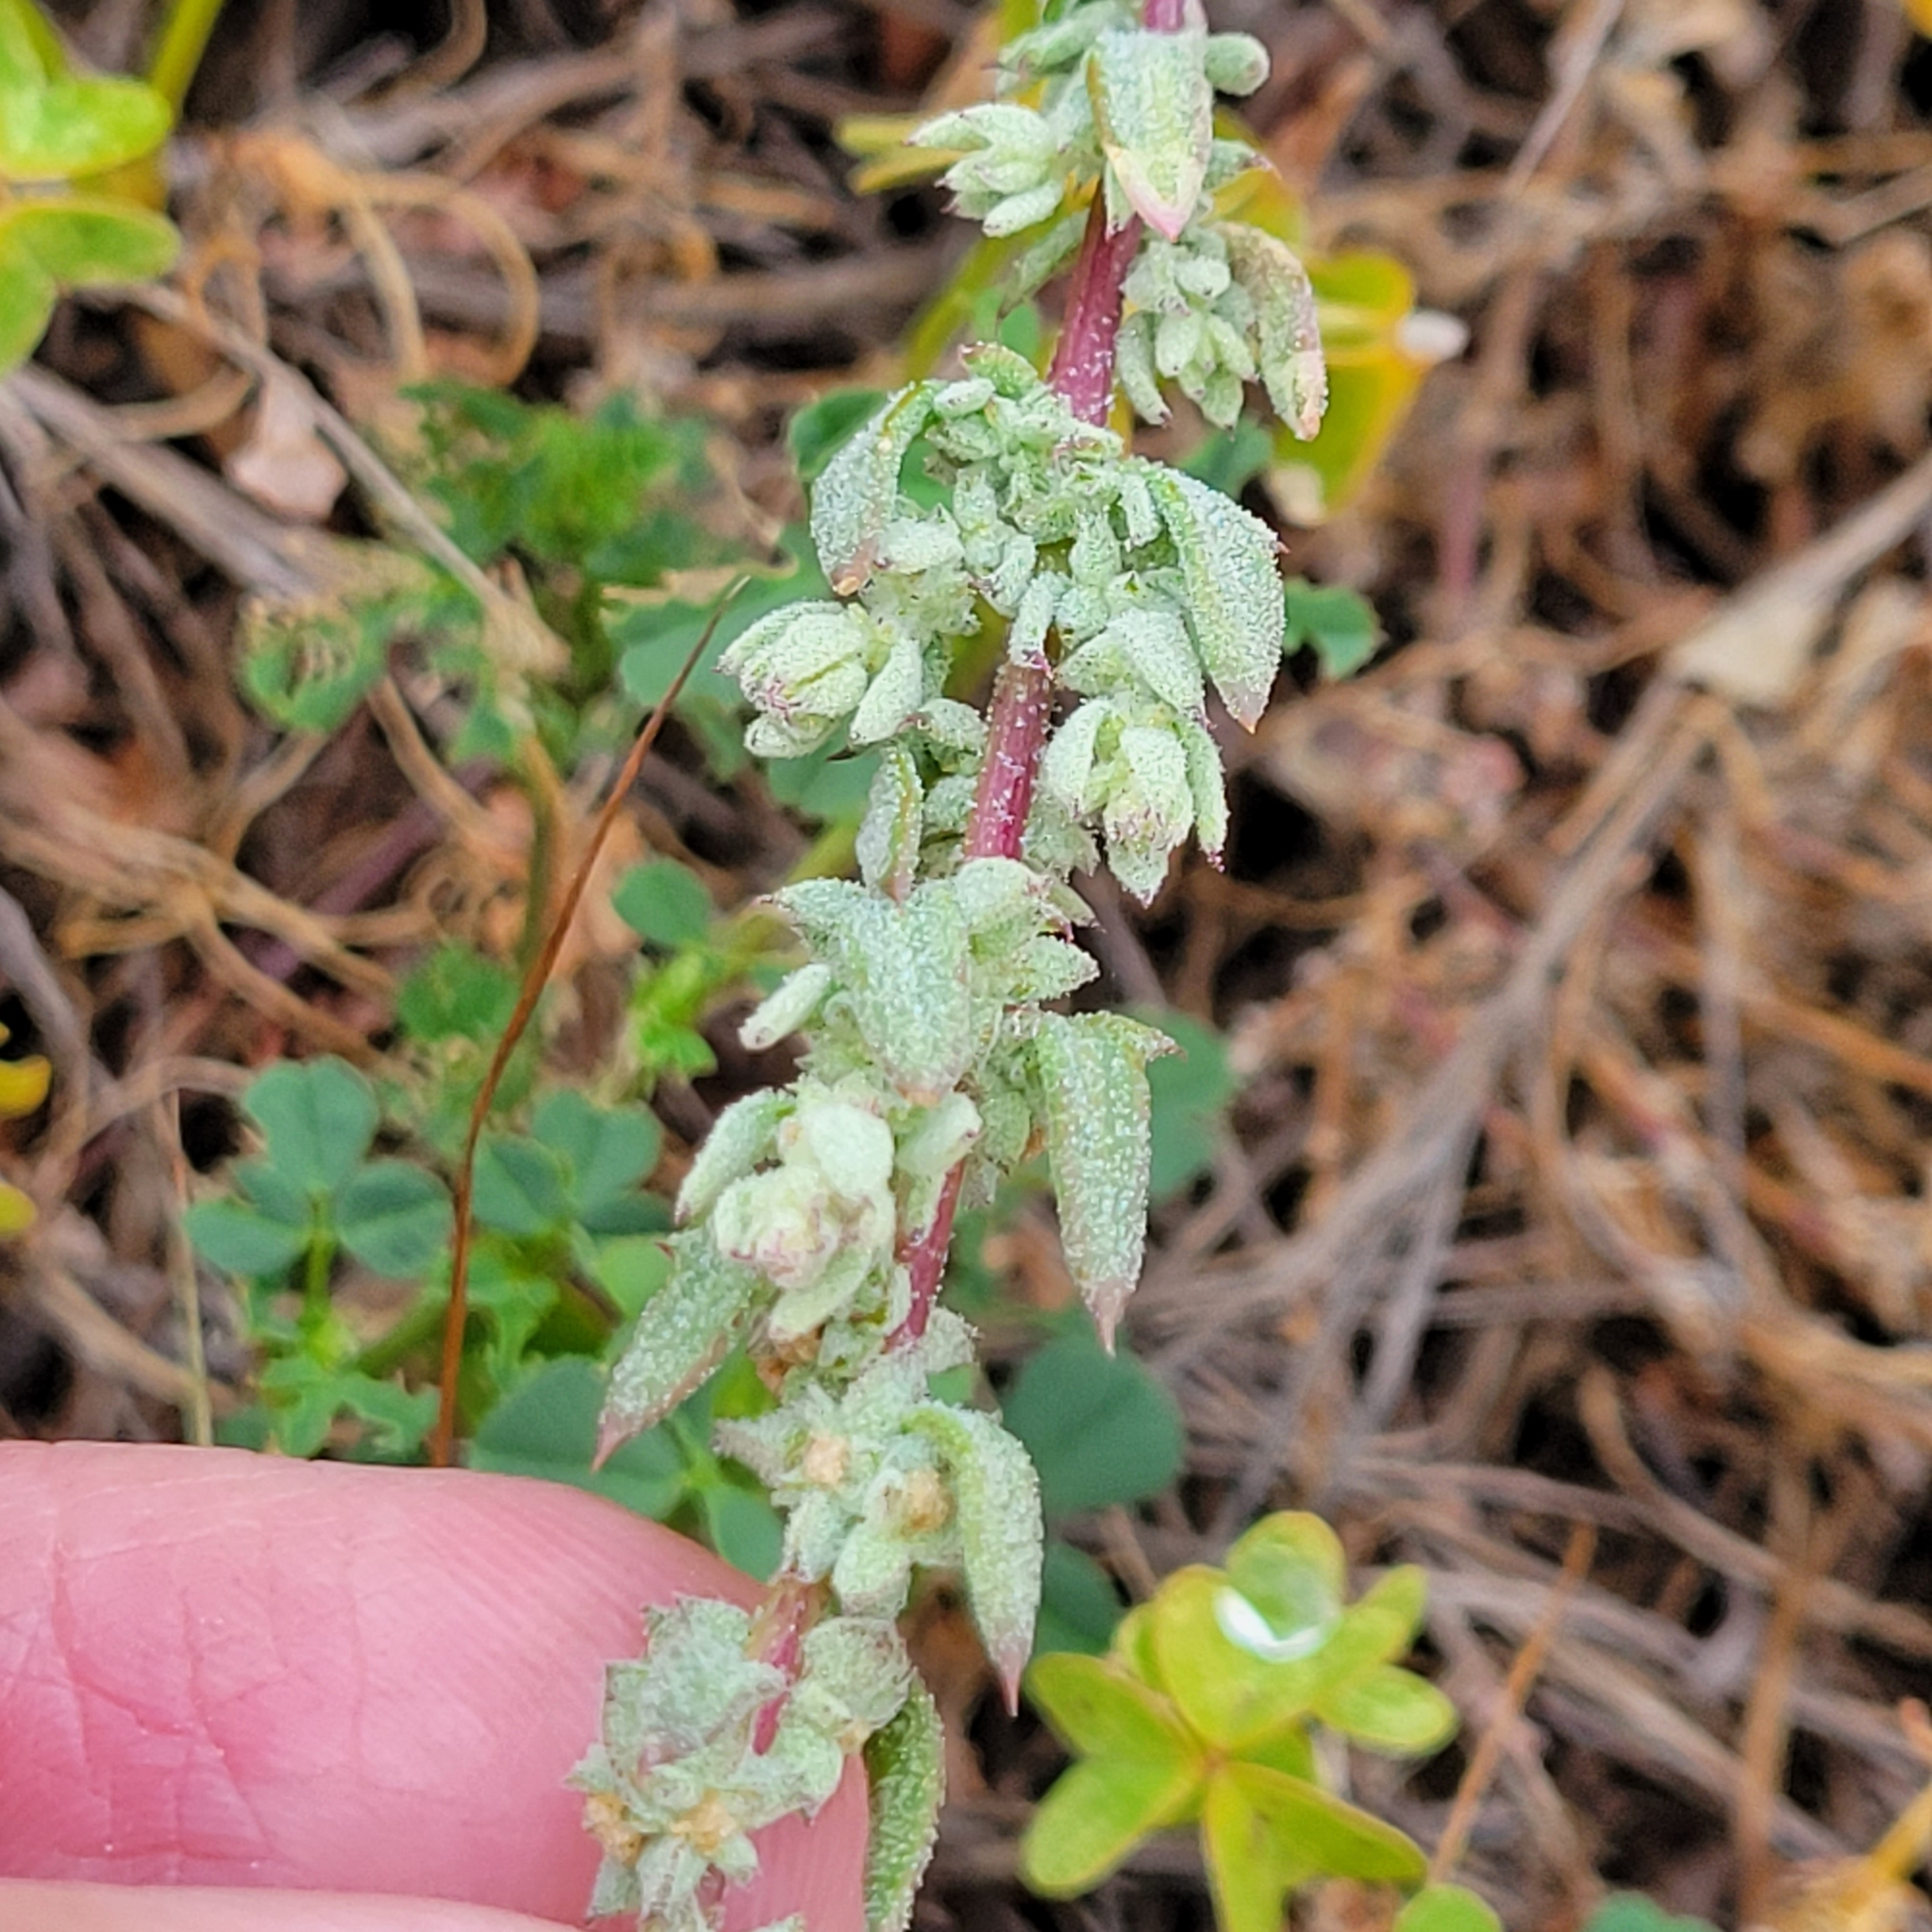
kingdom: Plantae
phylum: Tracheophyta
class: Magnoliopsida
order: Caryophyllales
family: Amaranthaceae
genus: Extriplex
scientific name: Extriplex californica
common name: California saltbush
